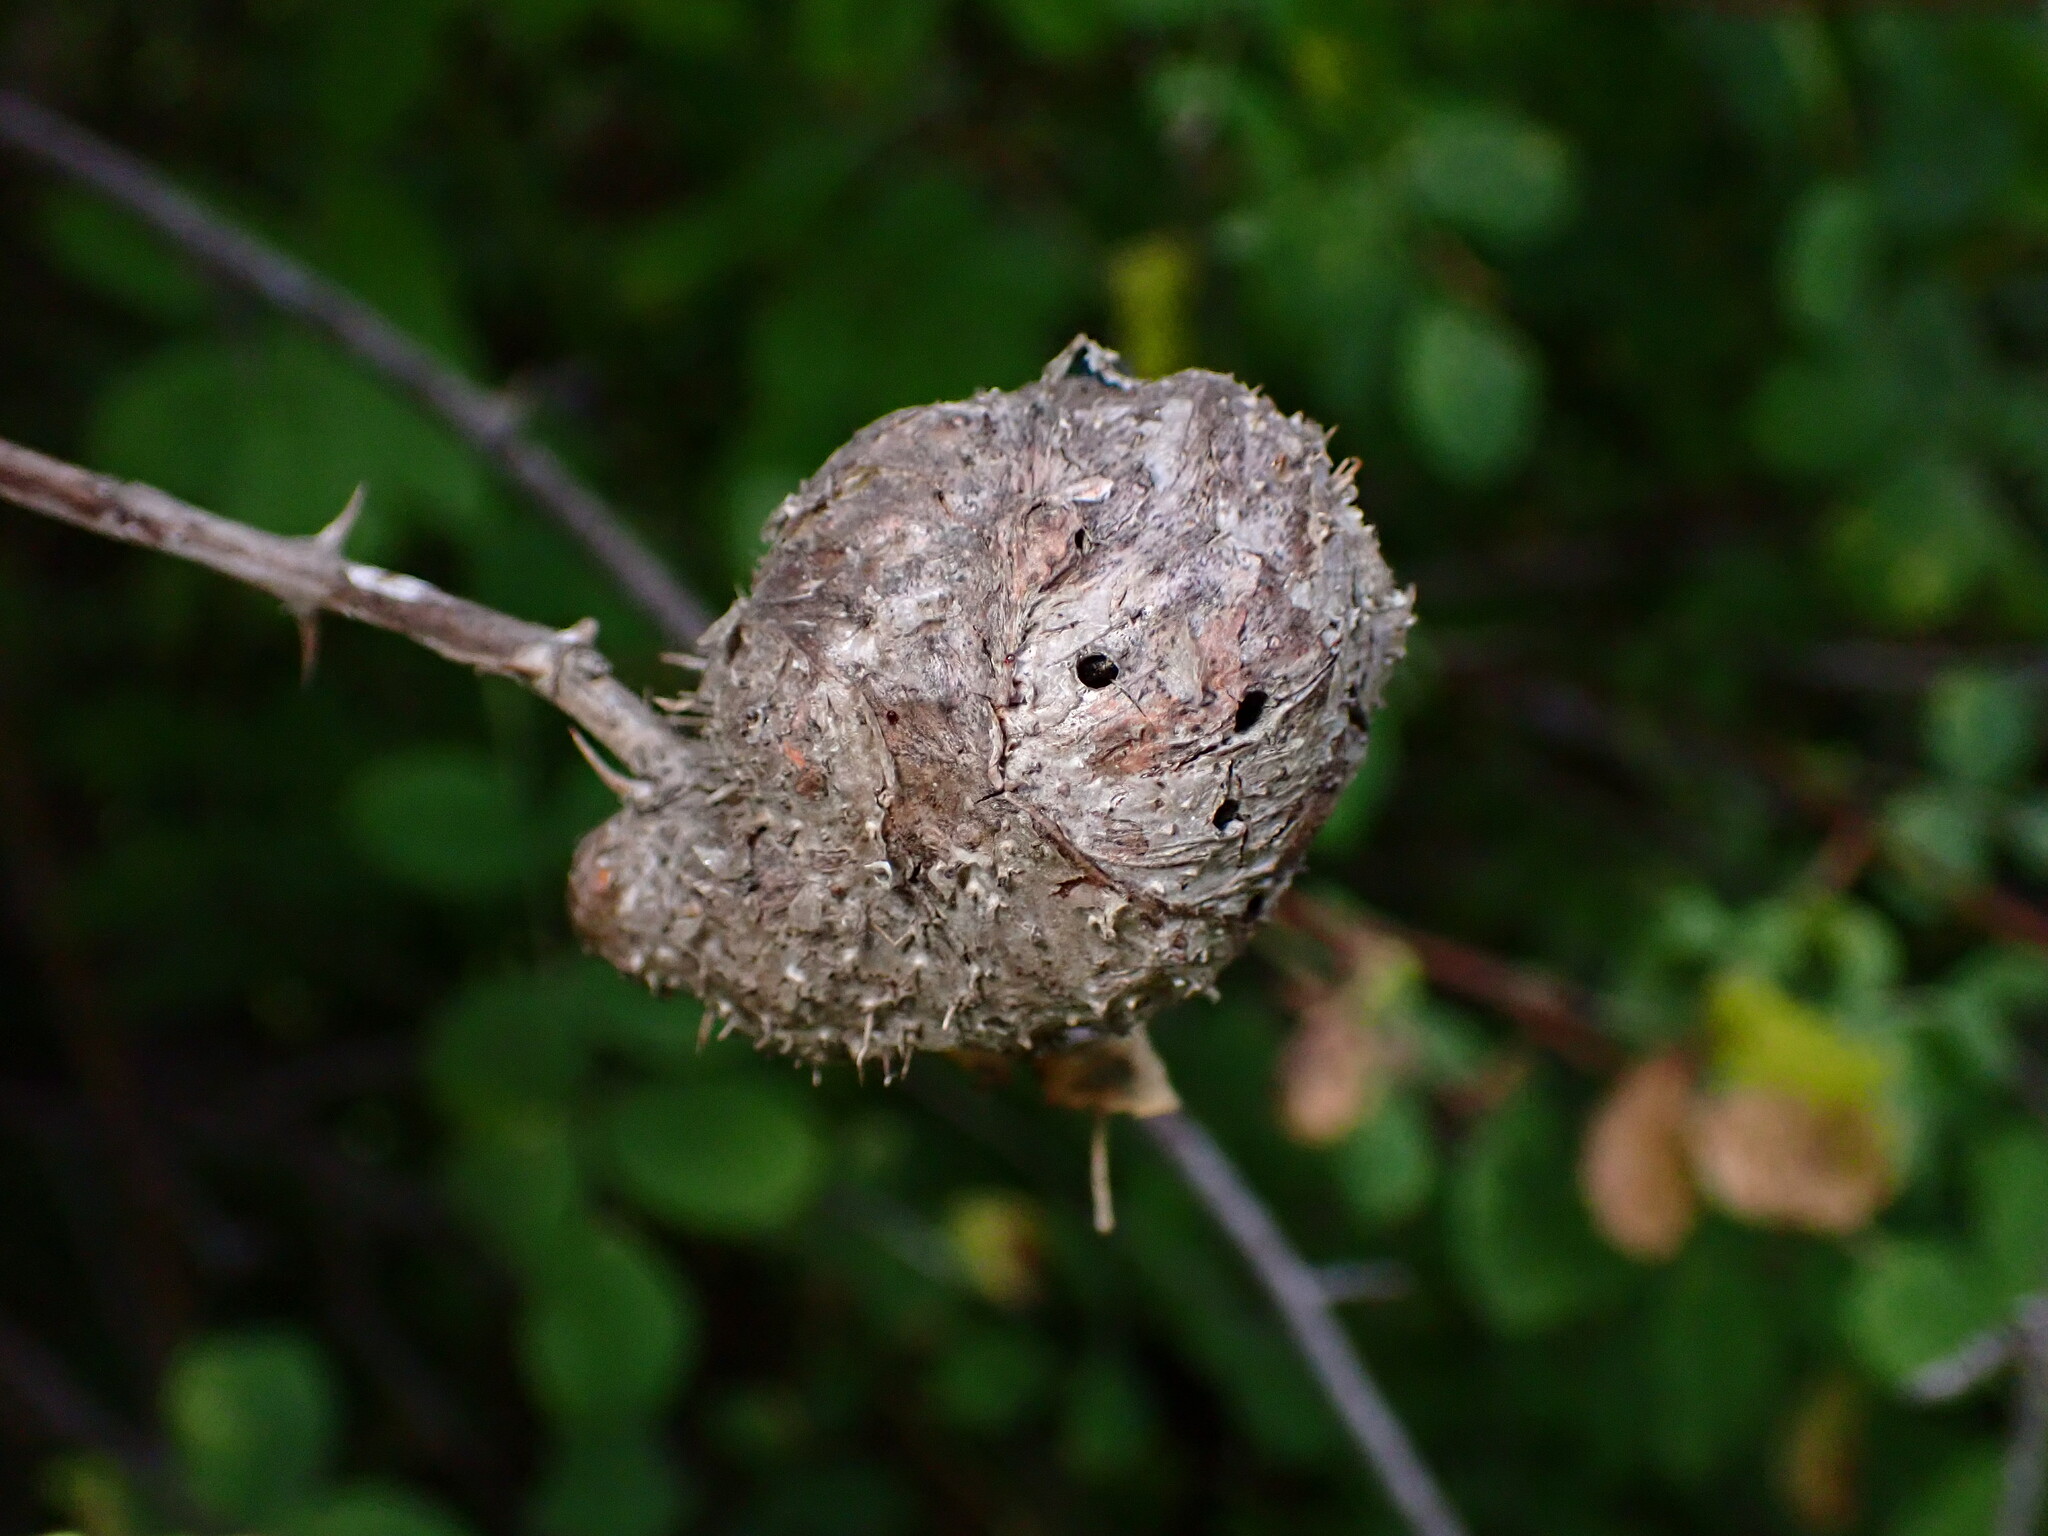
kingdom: Animalia
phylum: Arthropoda
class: Insecta
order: Hymenoptera
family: Cynipidae
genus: Diplolepis
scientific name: Diplolepis californica
